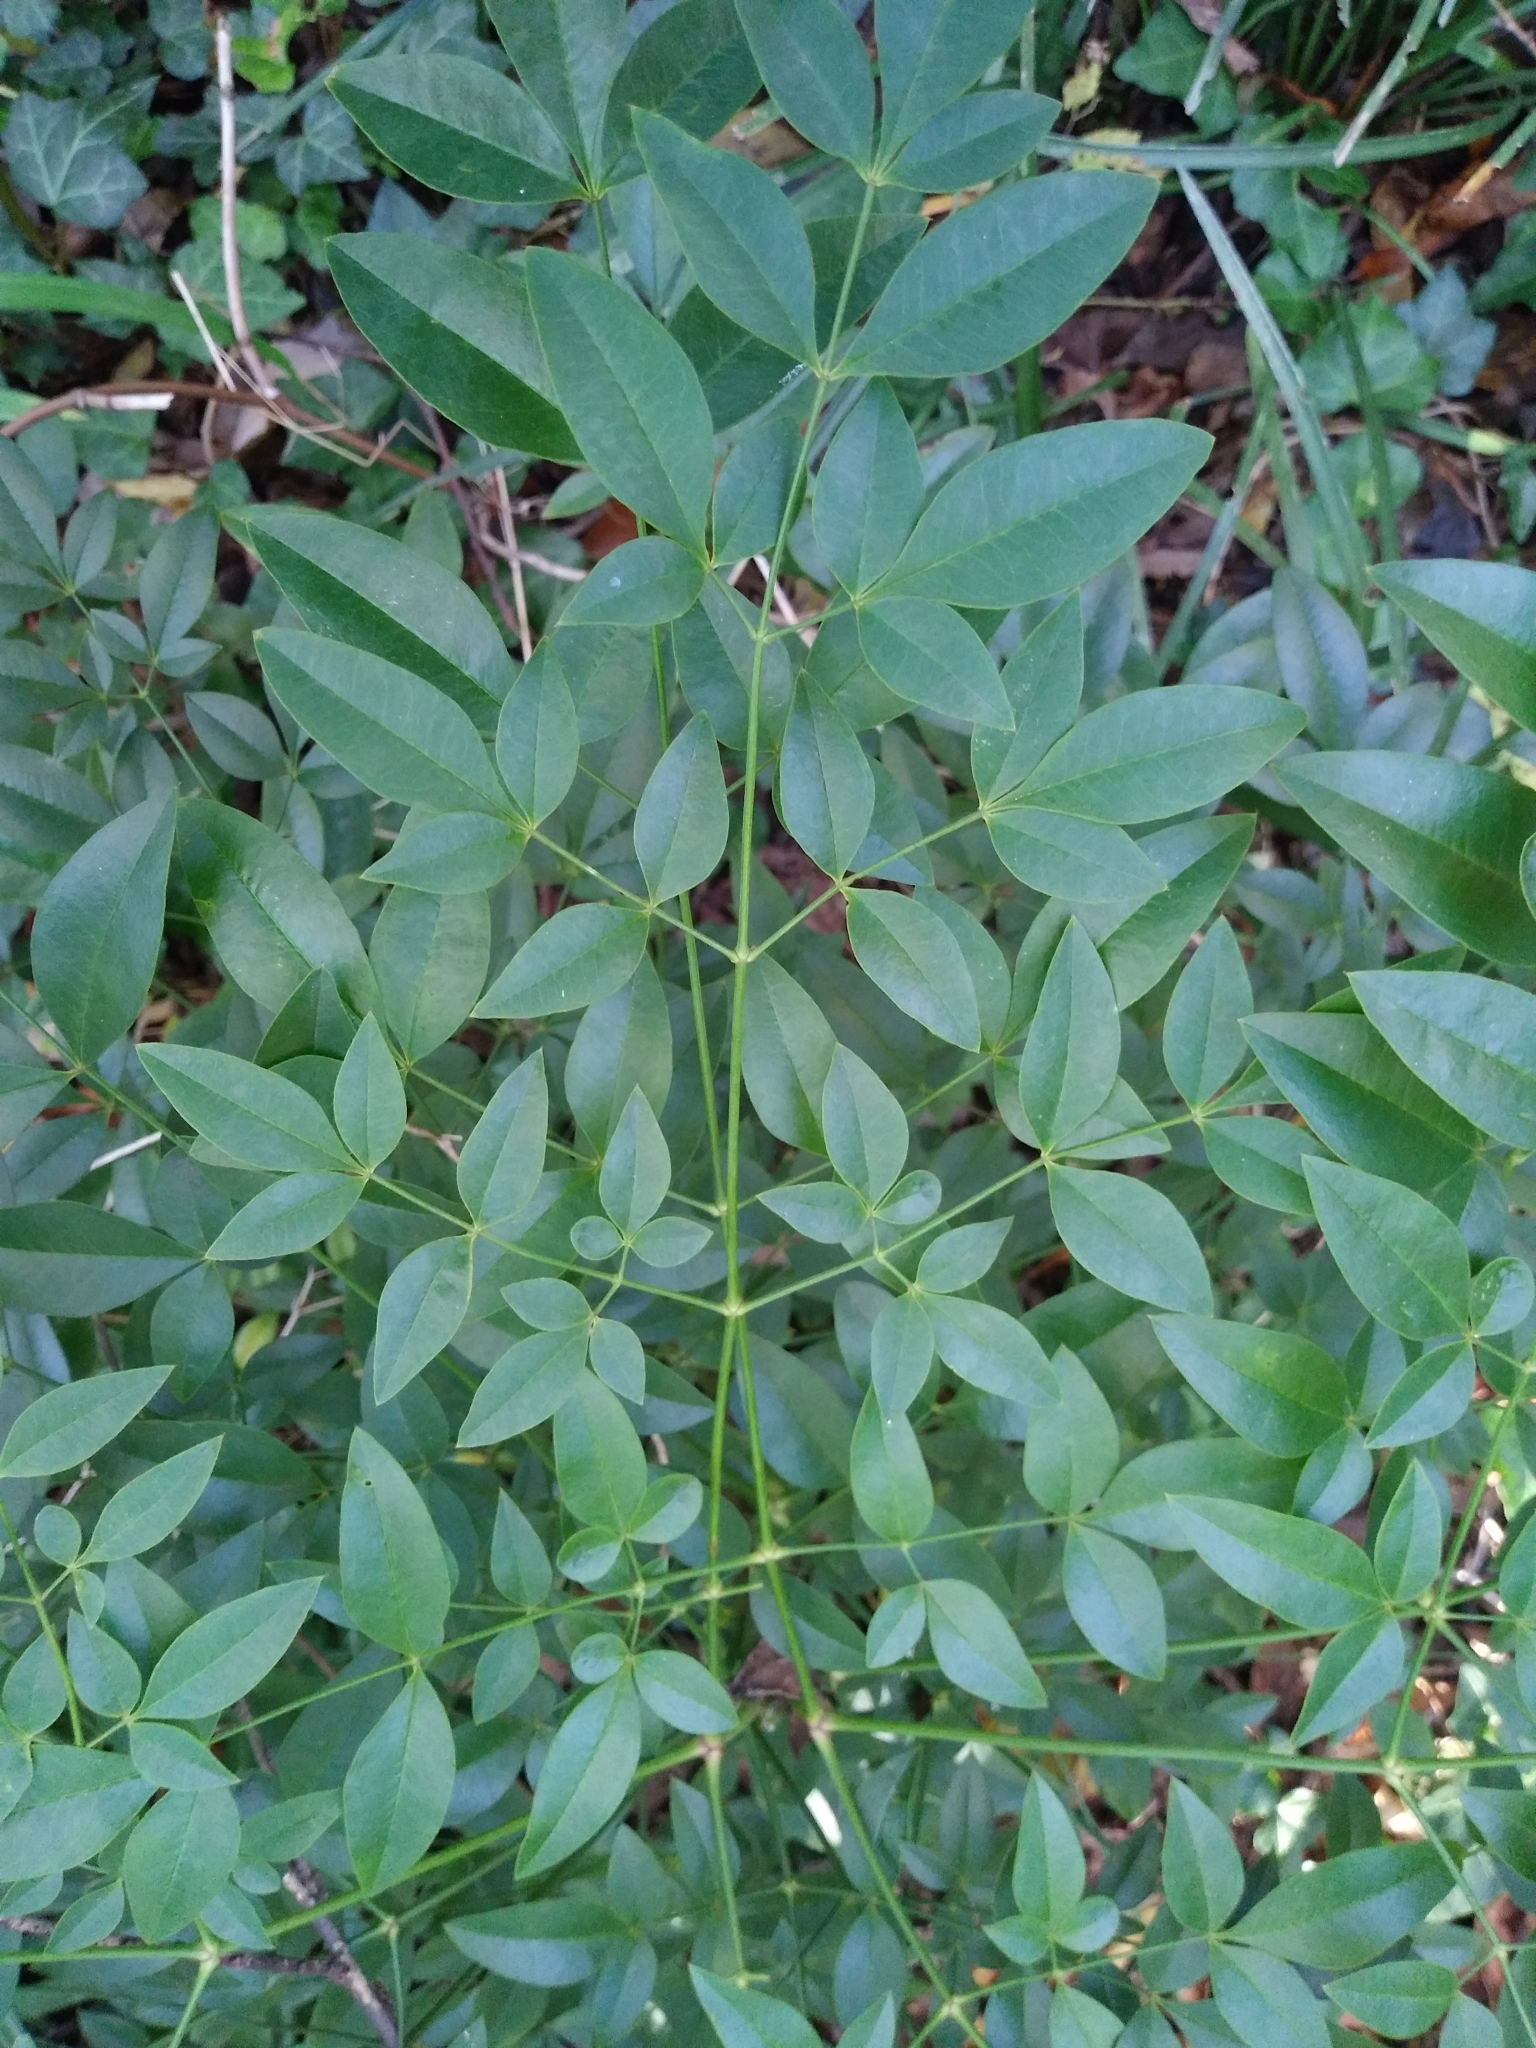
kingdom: Plantae
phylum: Tracheophyta
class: Magnoliopsida
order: Ranunculales
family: Berberidaceae
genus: Nandina
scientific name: Nandina domestica
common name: Sacred bamboo
